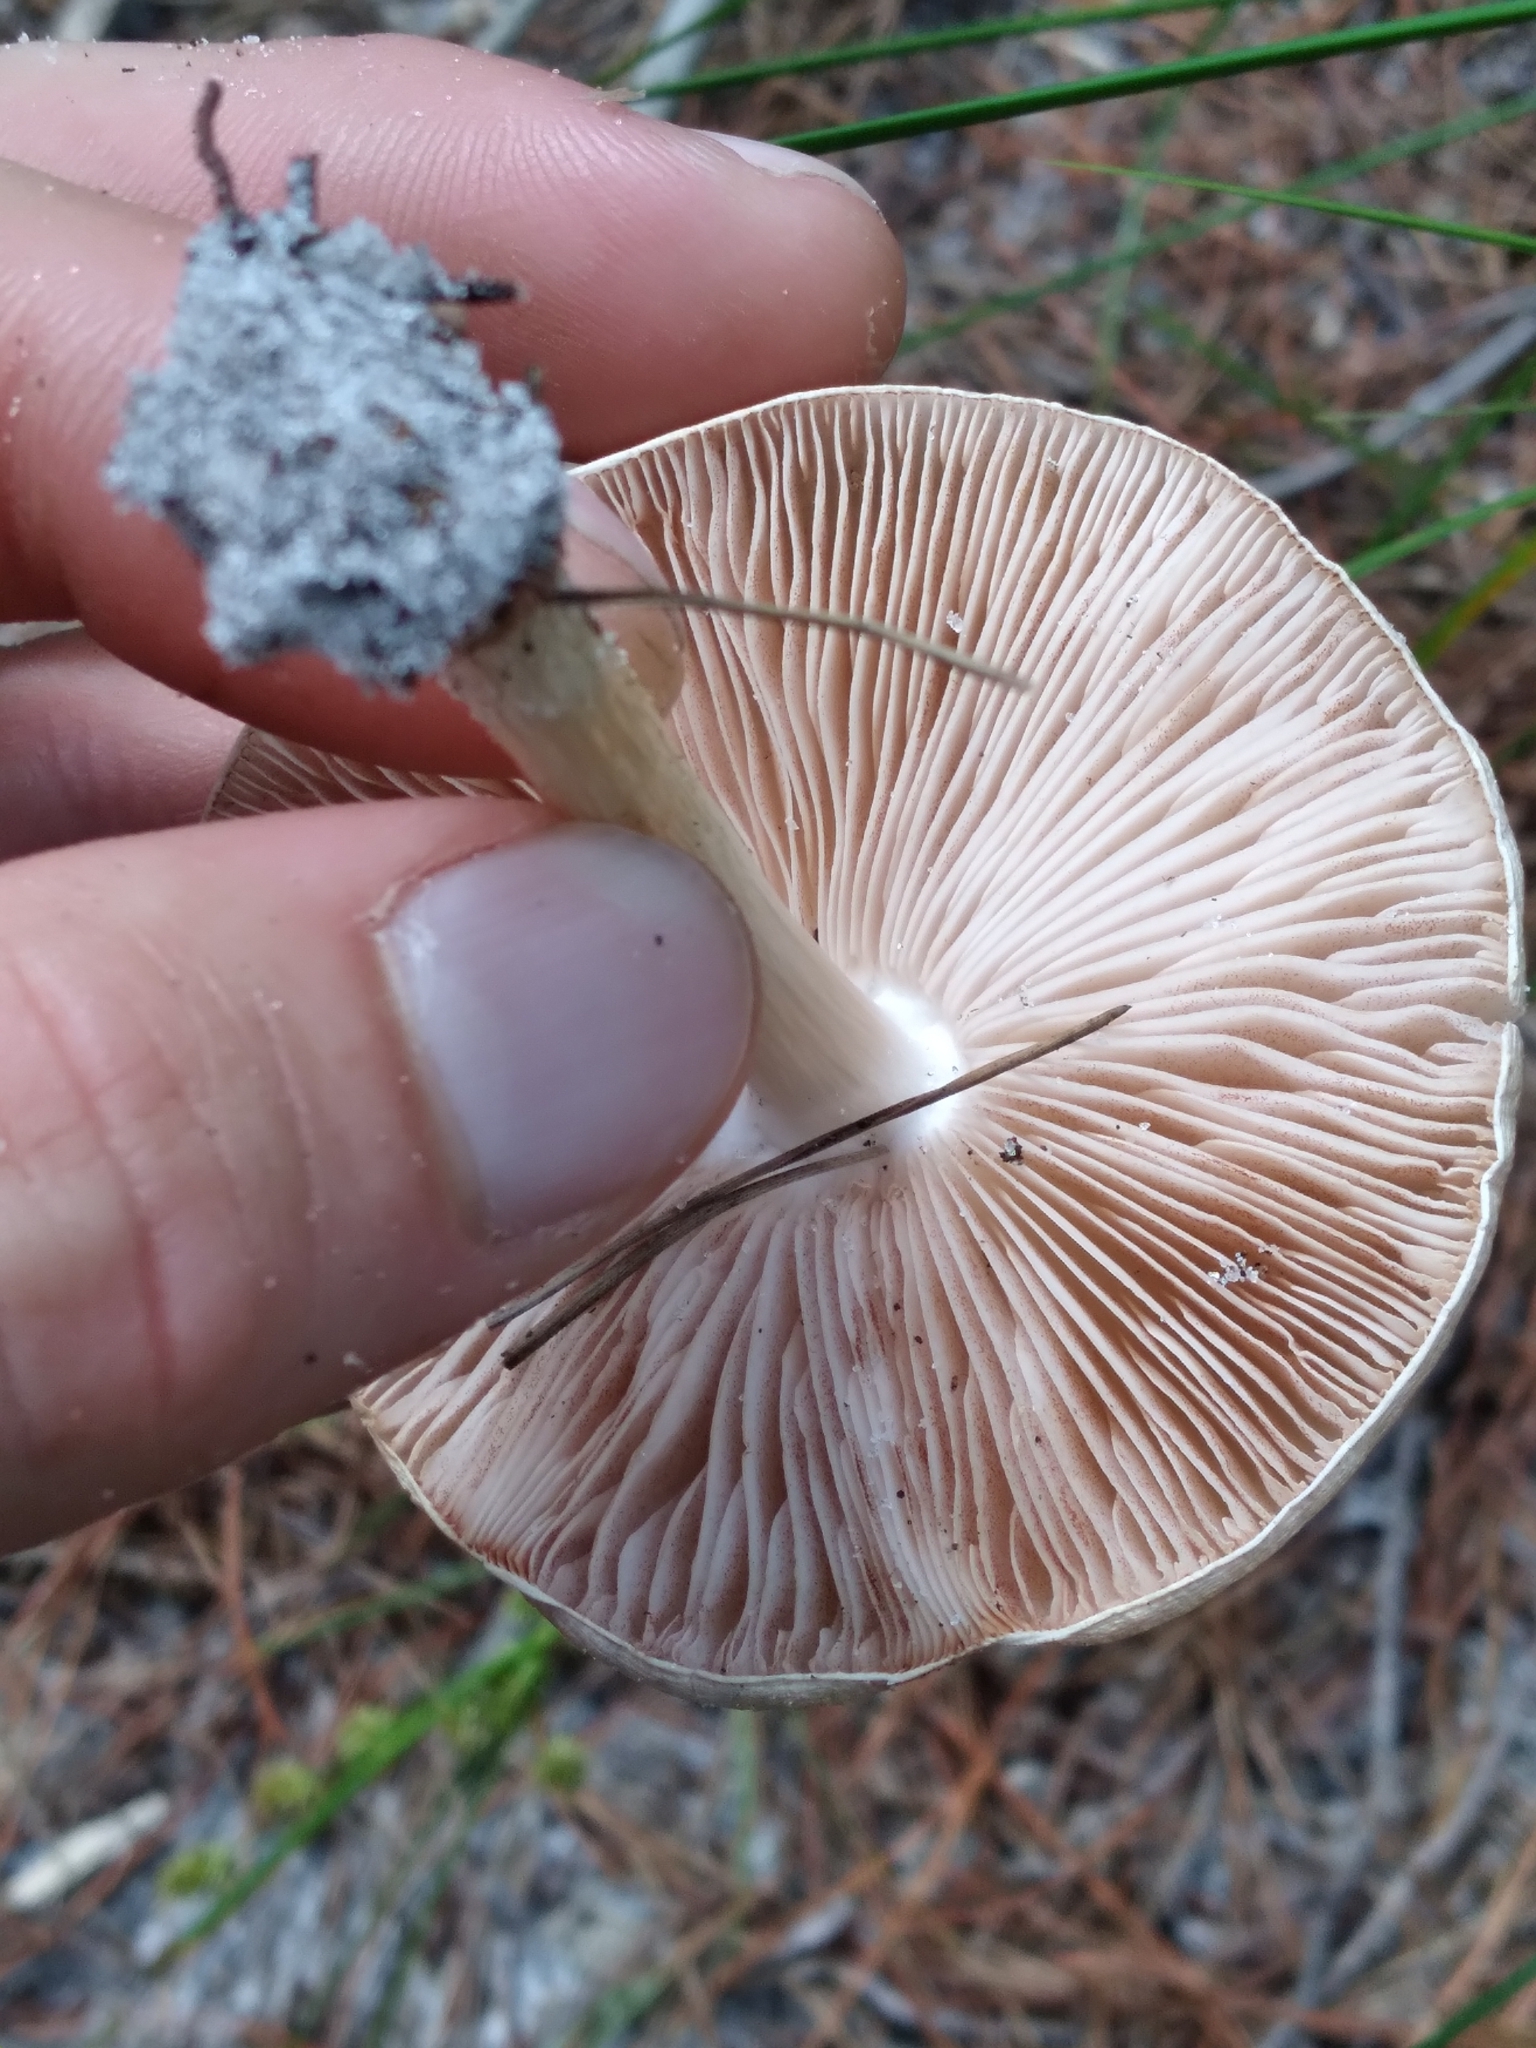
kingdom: Fungi
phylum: Basidiomycota
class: Agaricomycetes
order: Agaricales
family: Pluteaceae
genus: Pluteus
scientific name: Pluteus cervinus
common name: Deer shield
